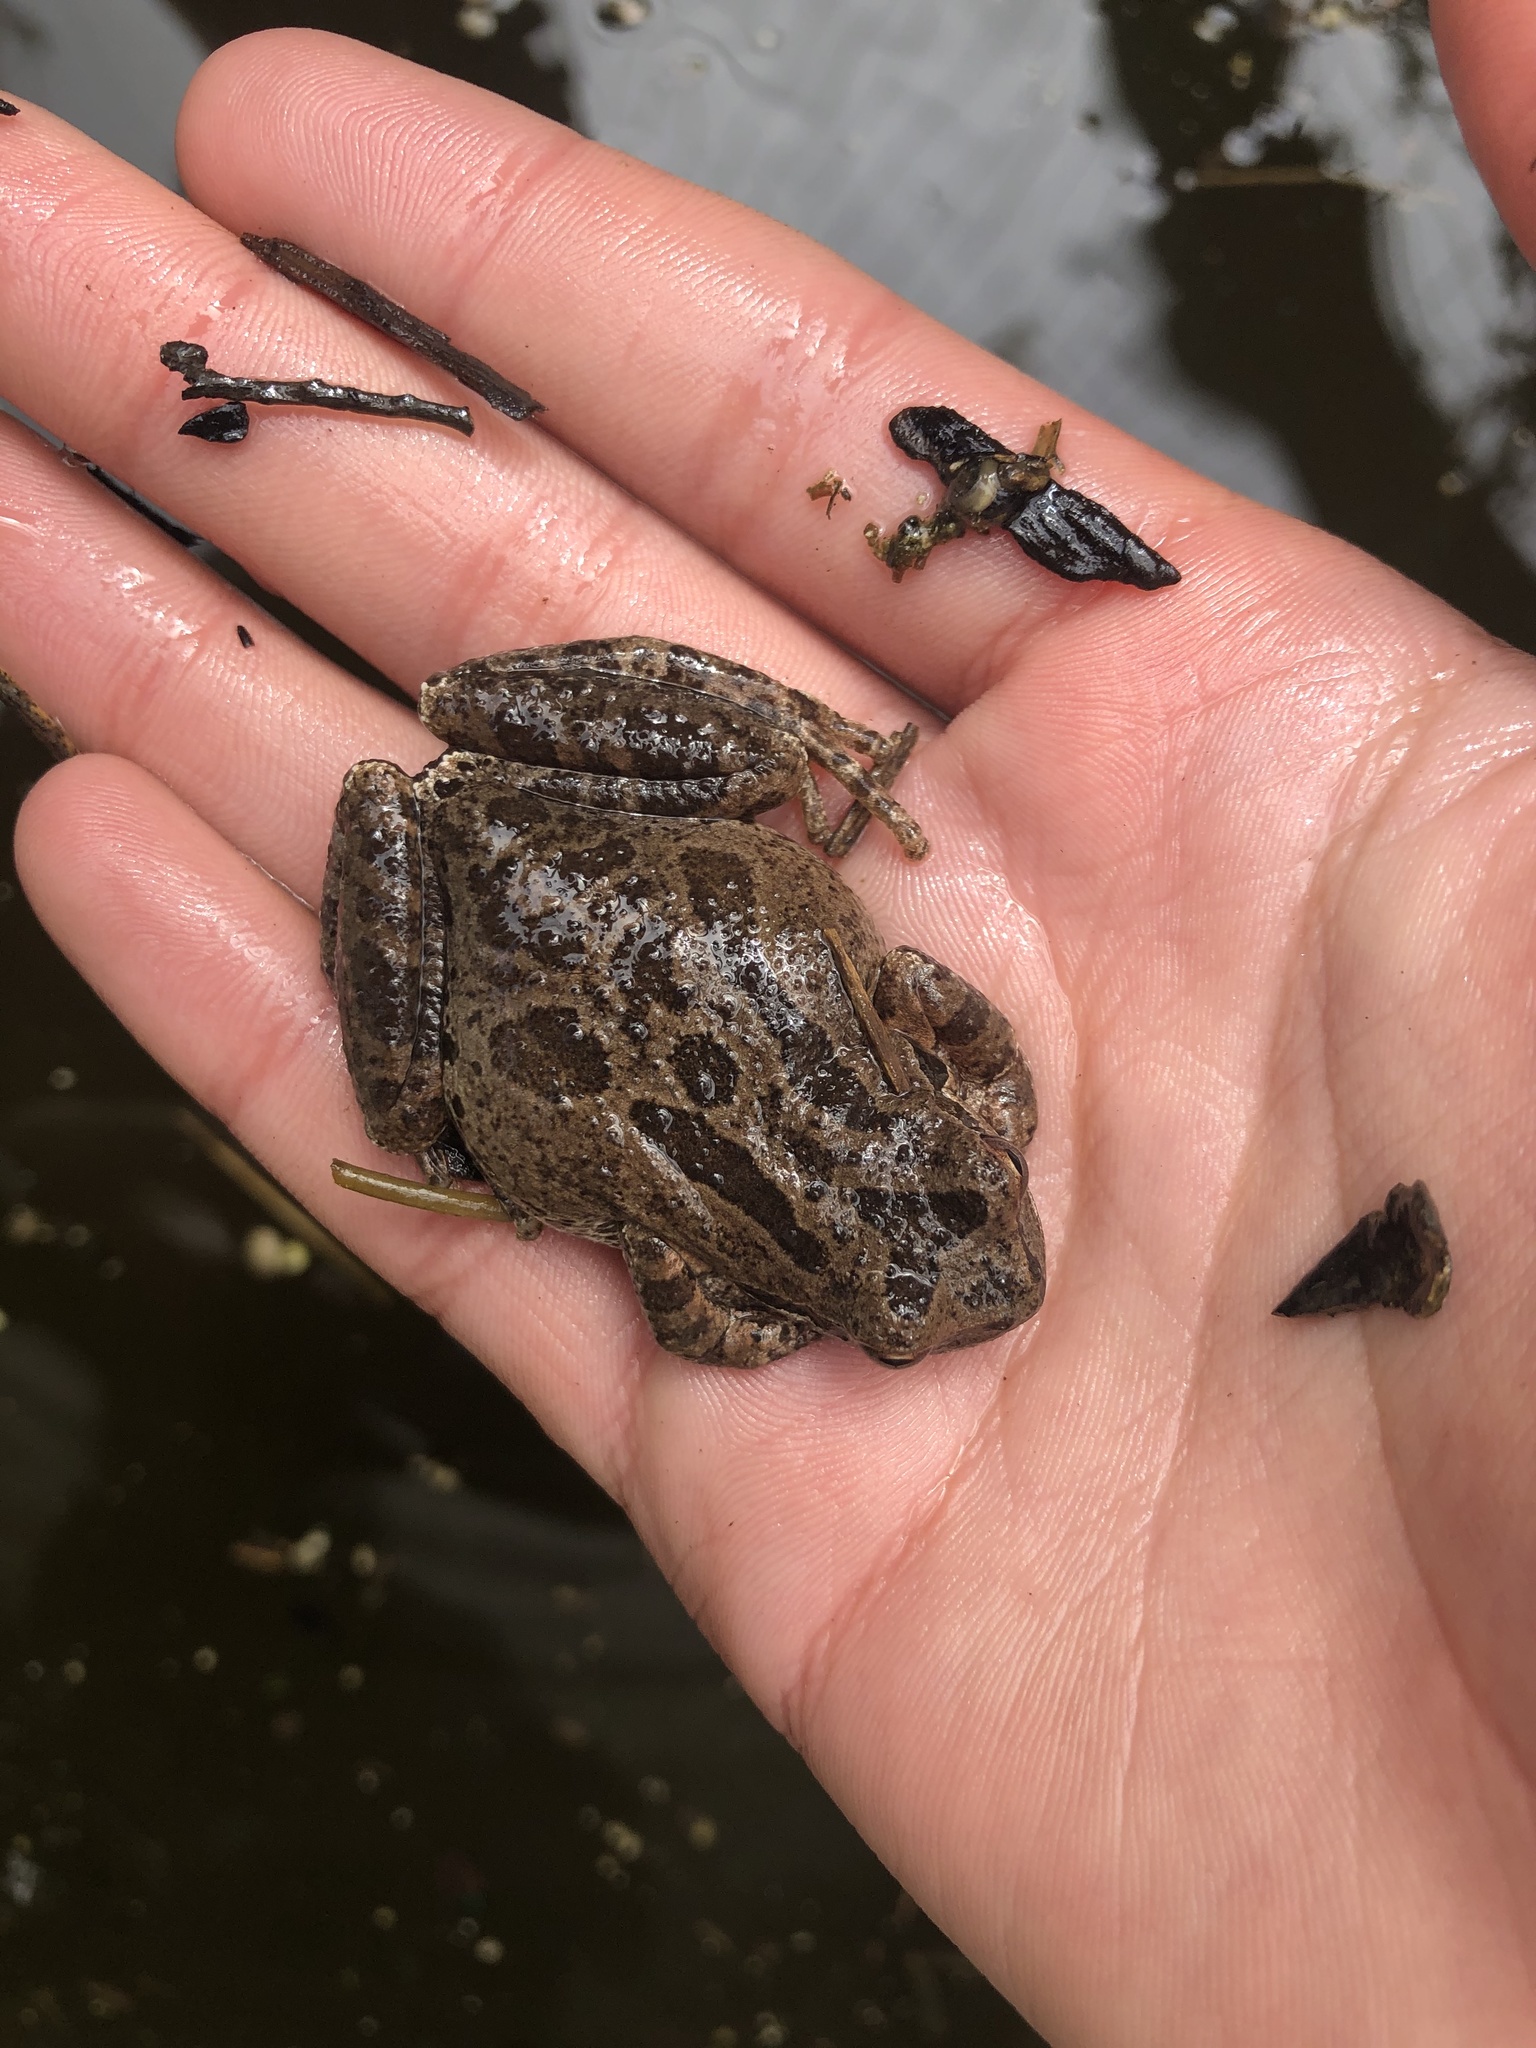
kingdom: Animalia
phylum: Chordata
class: Amphibia
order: Anura
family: Hylidae
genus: Pseudacris
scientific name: Pseudacris regilla
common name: Pacific chorus frog
